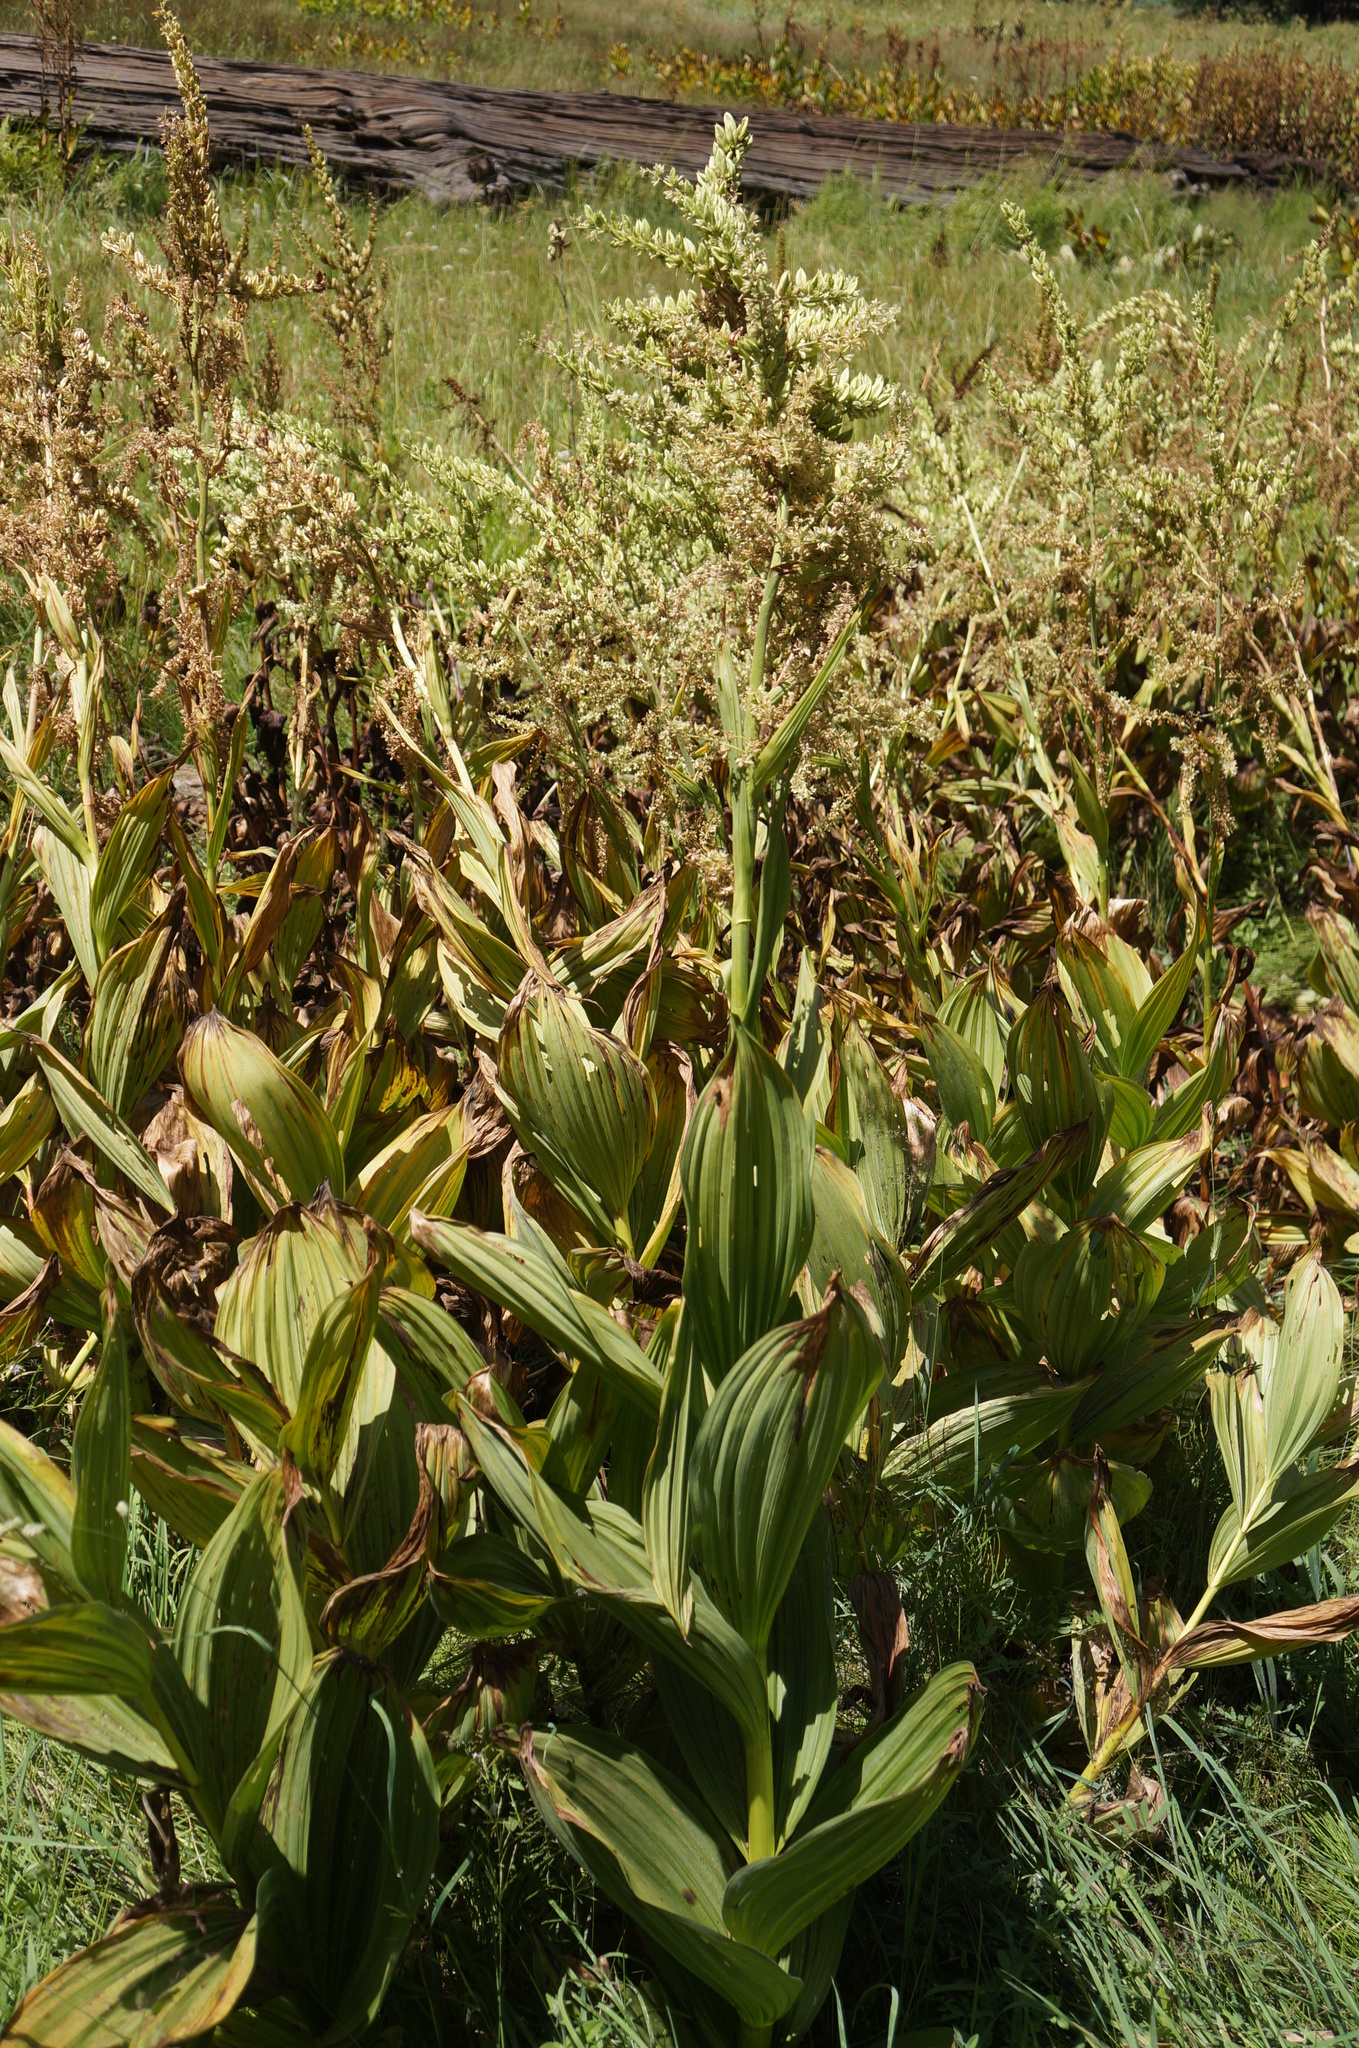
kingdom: Plantae
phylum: Tracheophyta
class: Liliopsida
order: Liliales
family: Melanthiaceae
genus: Veratrum
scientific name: Veratrum californicum
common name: California veratrum
